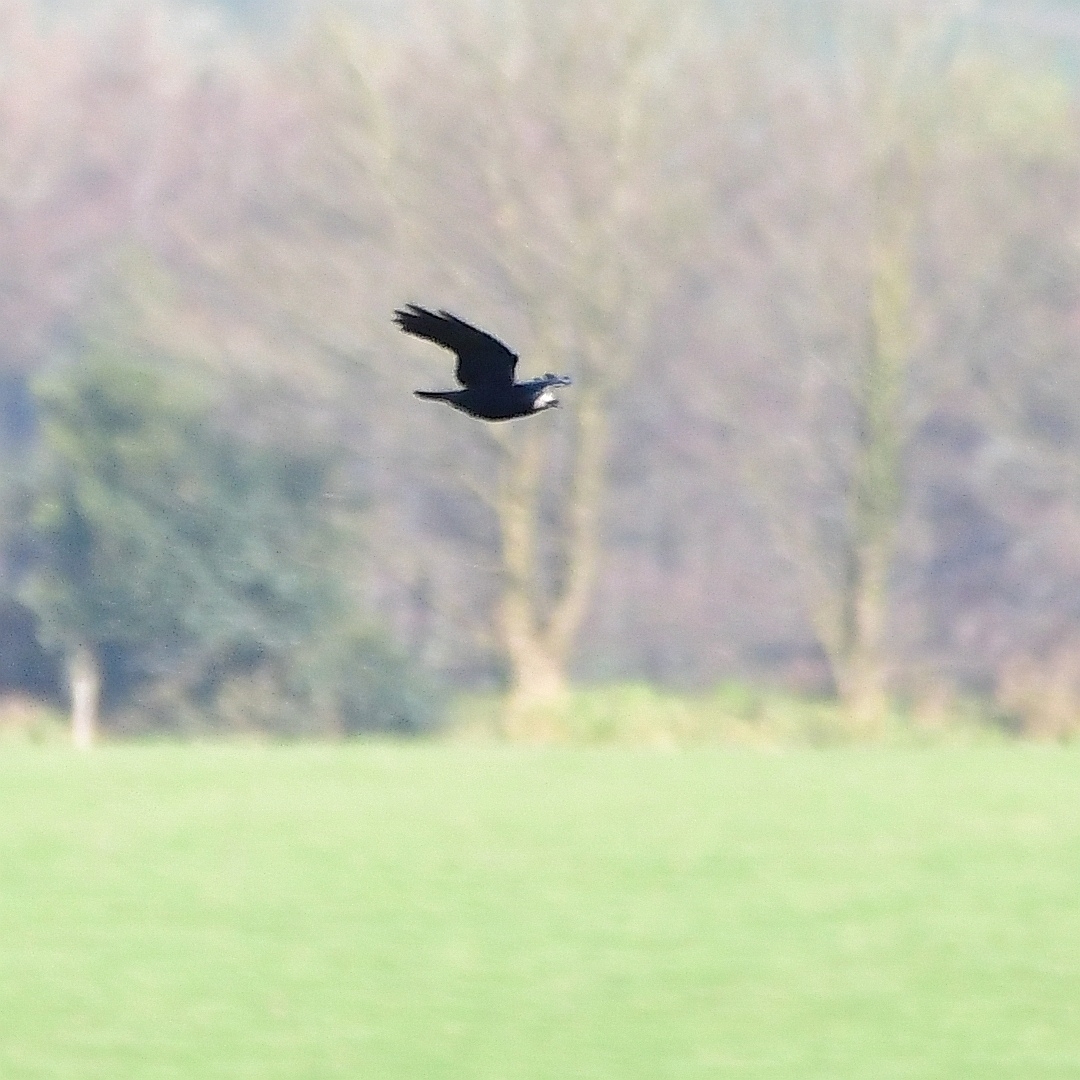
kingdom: Animalia
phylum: Chordata
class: Aves
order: Passeriformes
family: Corvidae
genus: Corvus
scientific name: Corvus frugilegus
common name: Rook
